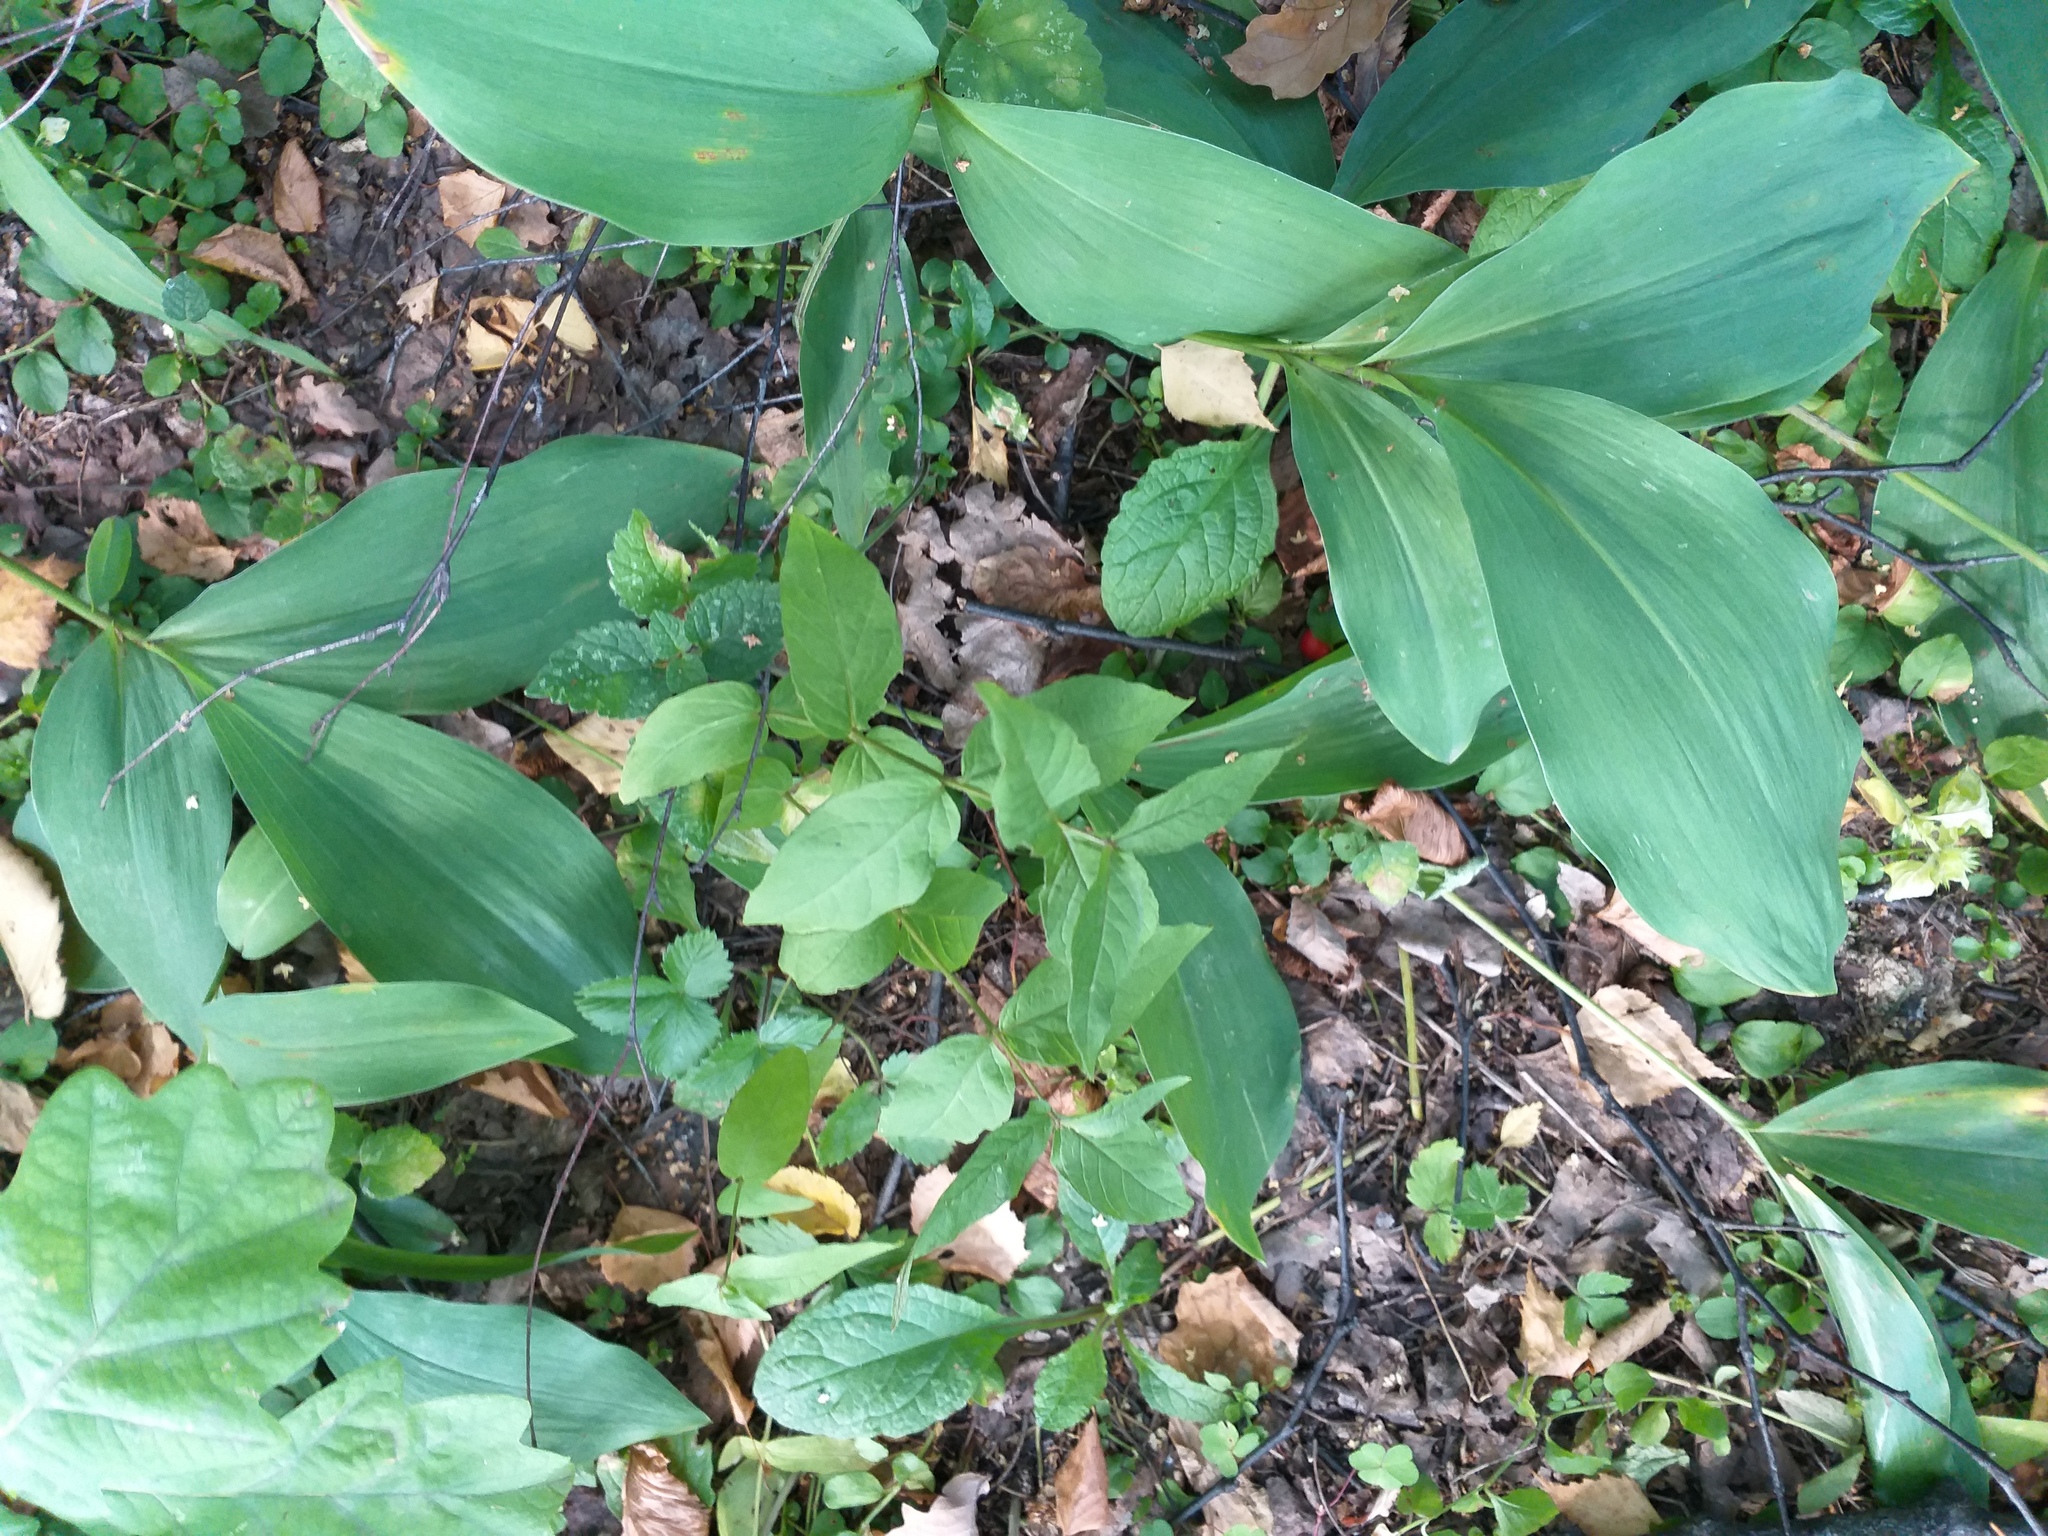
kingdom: Plantae
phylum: Tracheophyta
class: Magnoliopsida
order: Ericales
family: Primulaceae
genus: Lysimachia
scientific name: Lysimachia vulgaris
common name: Yellow loosestrife
